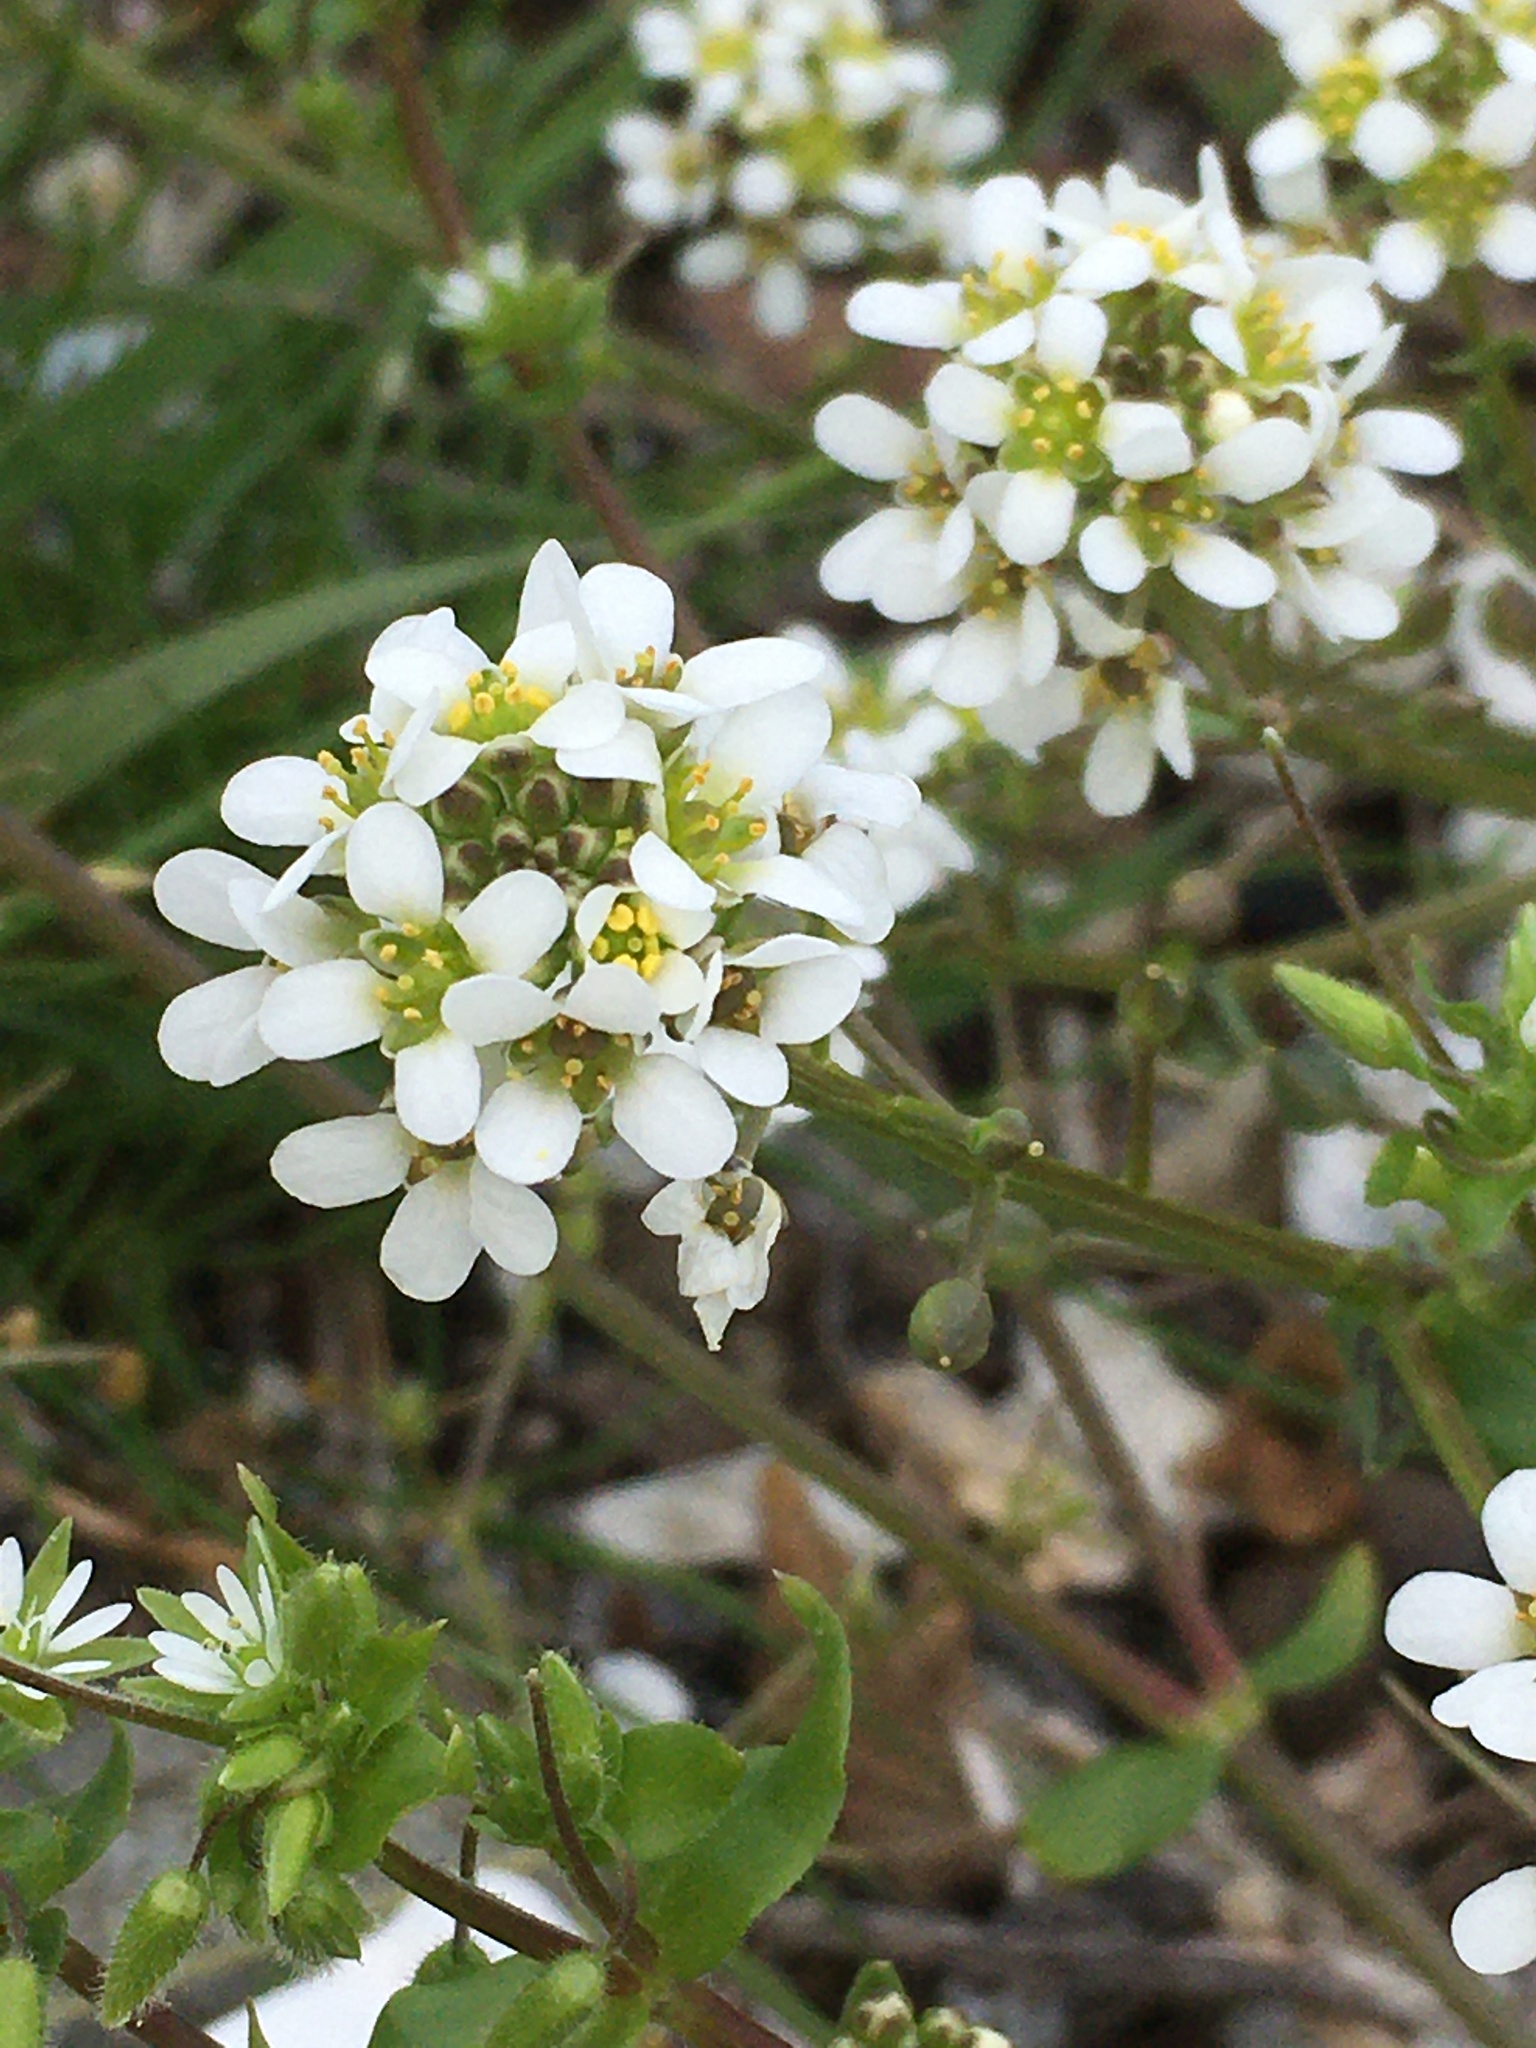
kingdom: Plantae
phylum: Tracheophyta
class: Magnoliopsida
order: Brassicales
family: Brassicaceae
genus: Berteroa
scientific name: Berteroa incana
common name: Hoary alison
